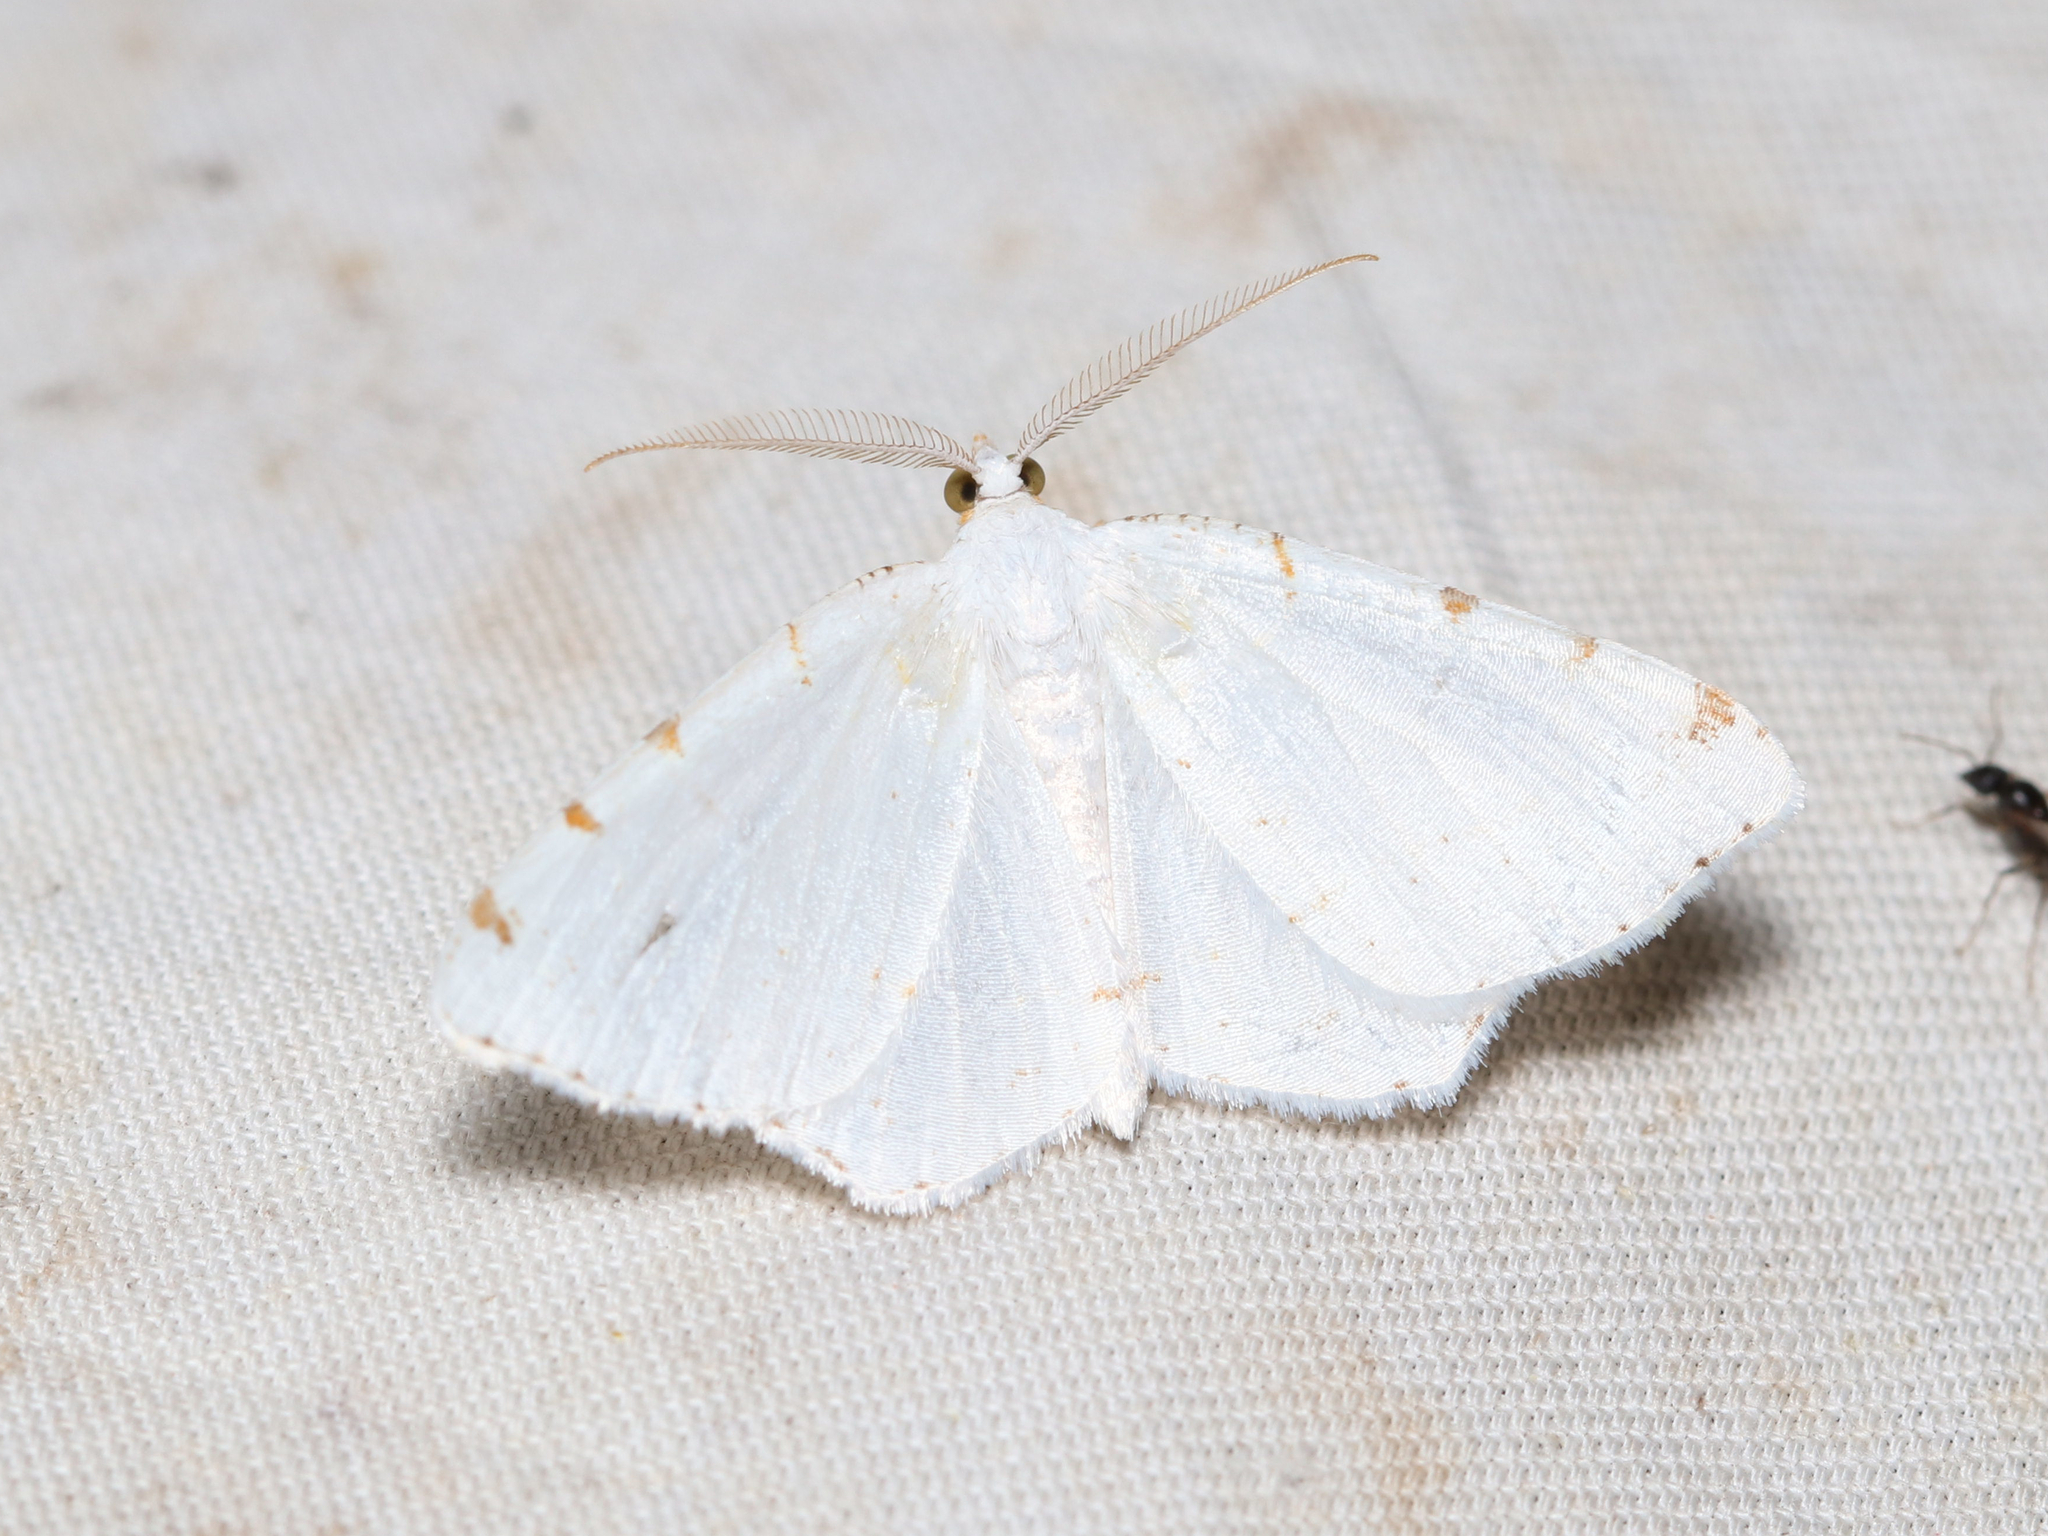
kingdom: Animalia
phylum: Arthropoda
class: Insecta
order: Lepidoptera
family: Geometridae
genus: Macaria
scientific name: Macaria pustularia
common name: Lesser maple spanworm moth
